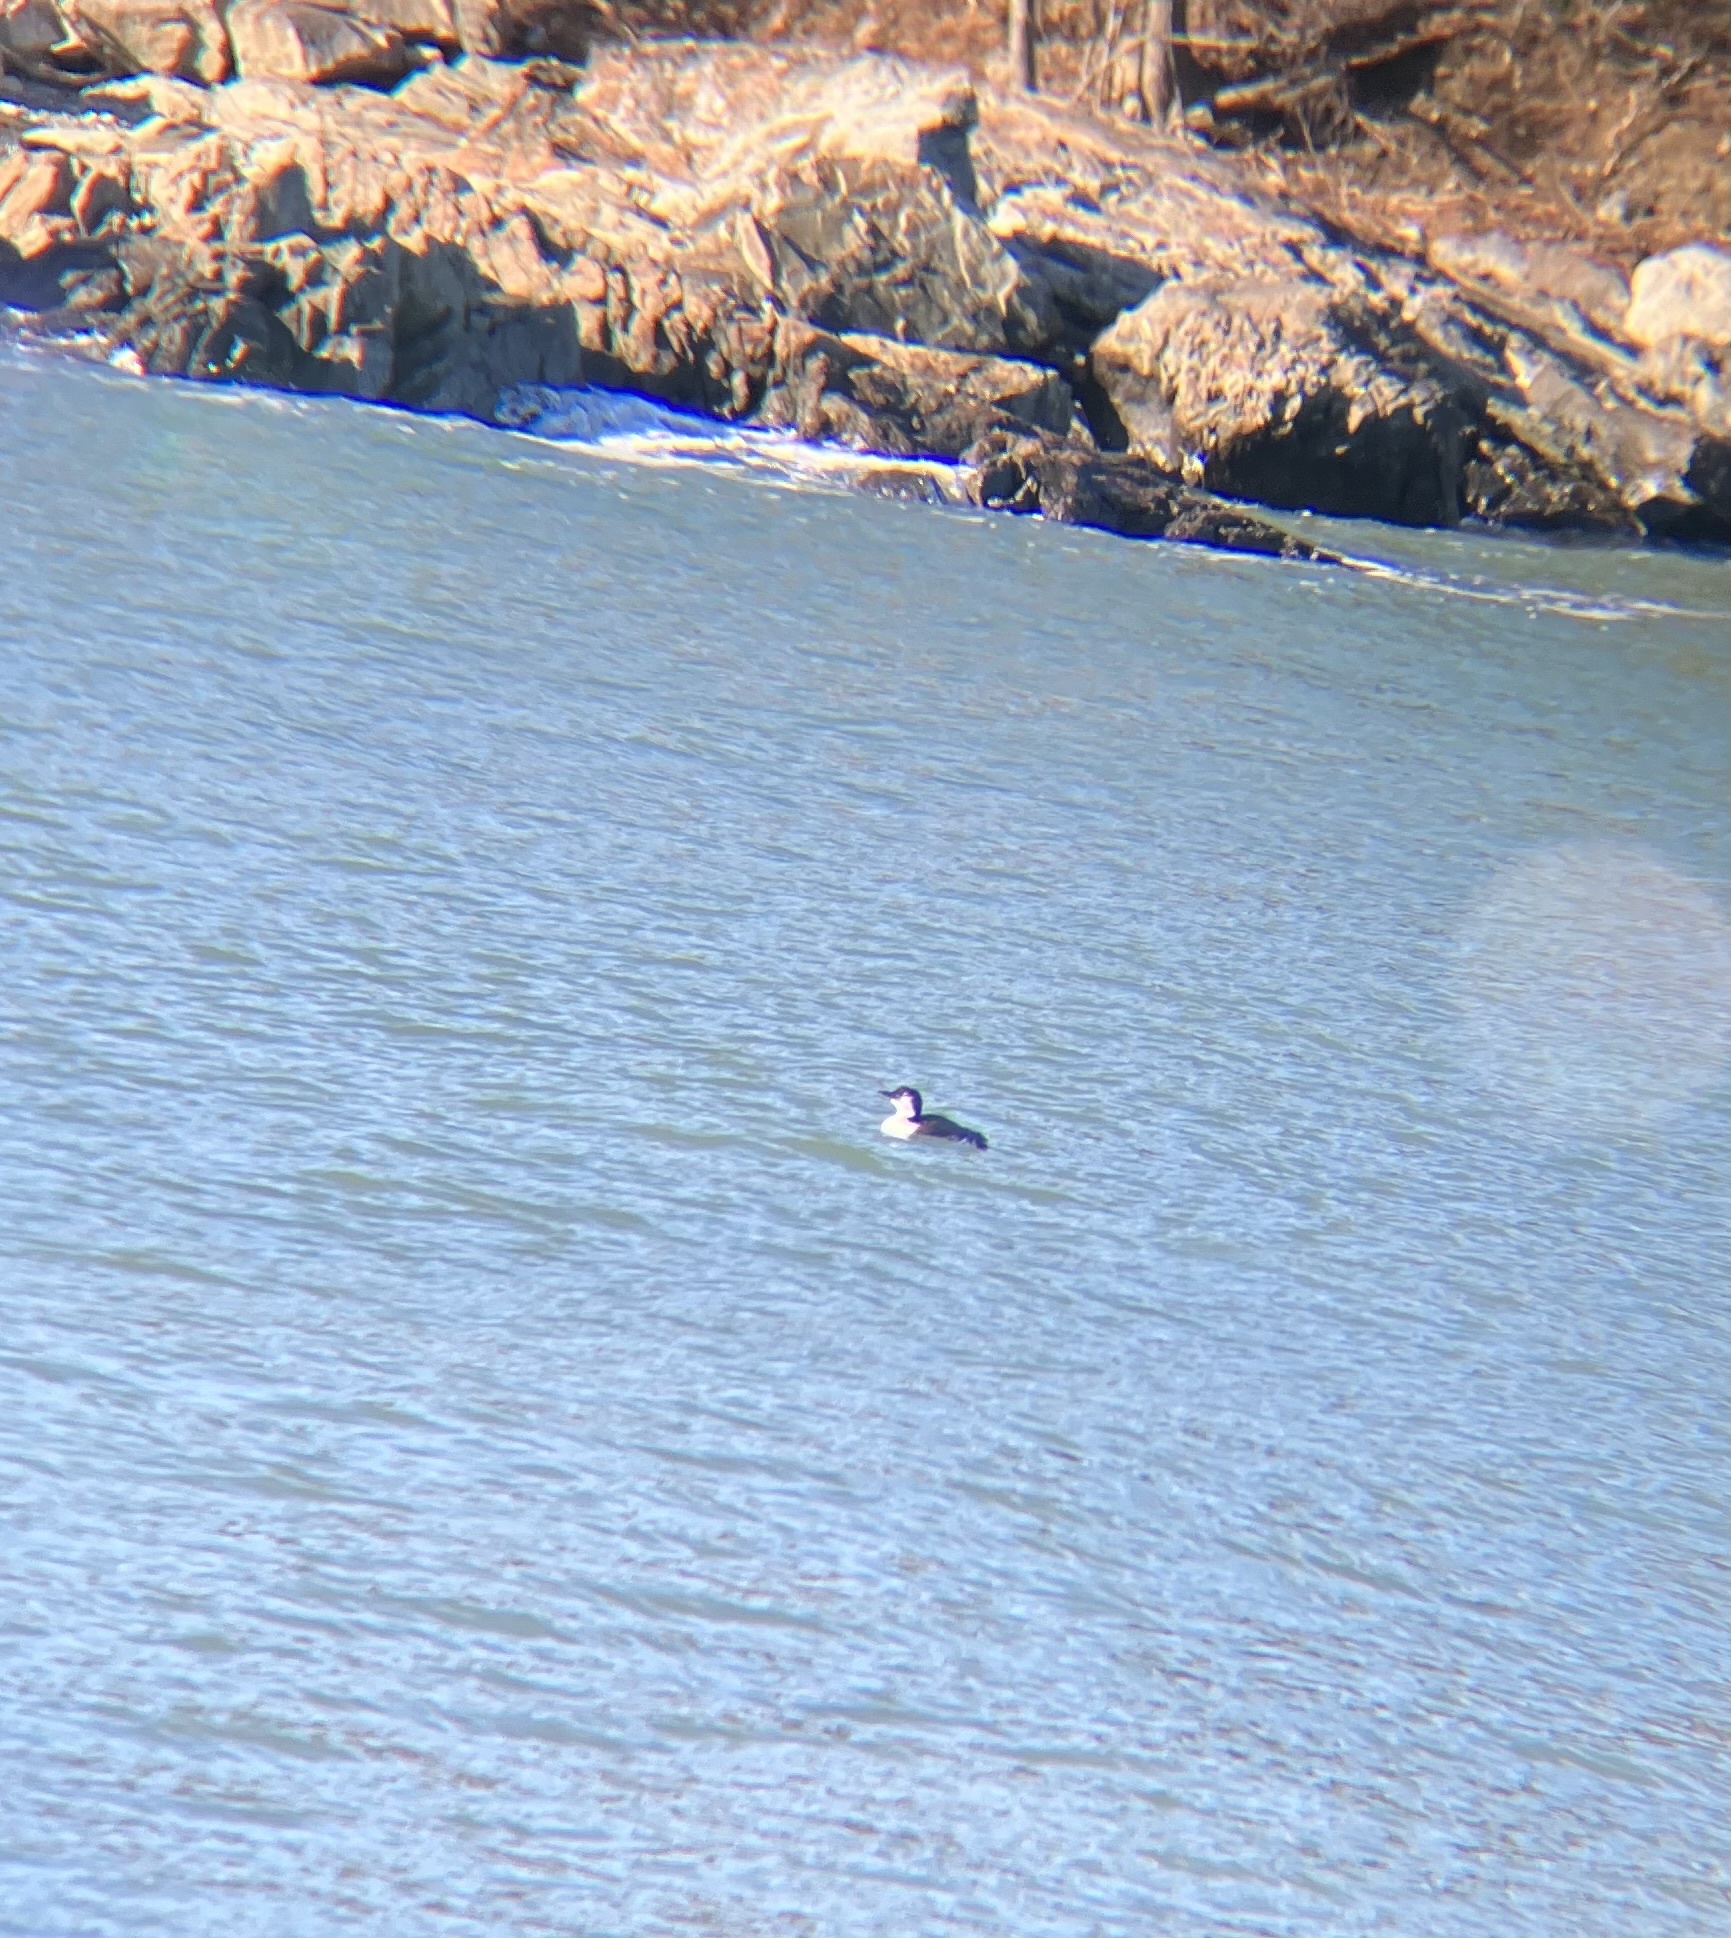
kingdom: Animalia
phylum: Chordata
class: Aves
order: Gaviiformes
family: Gaviidae
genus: Gavia
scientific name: Gavia immer
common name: Common loon
